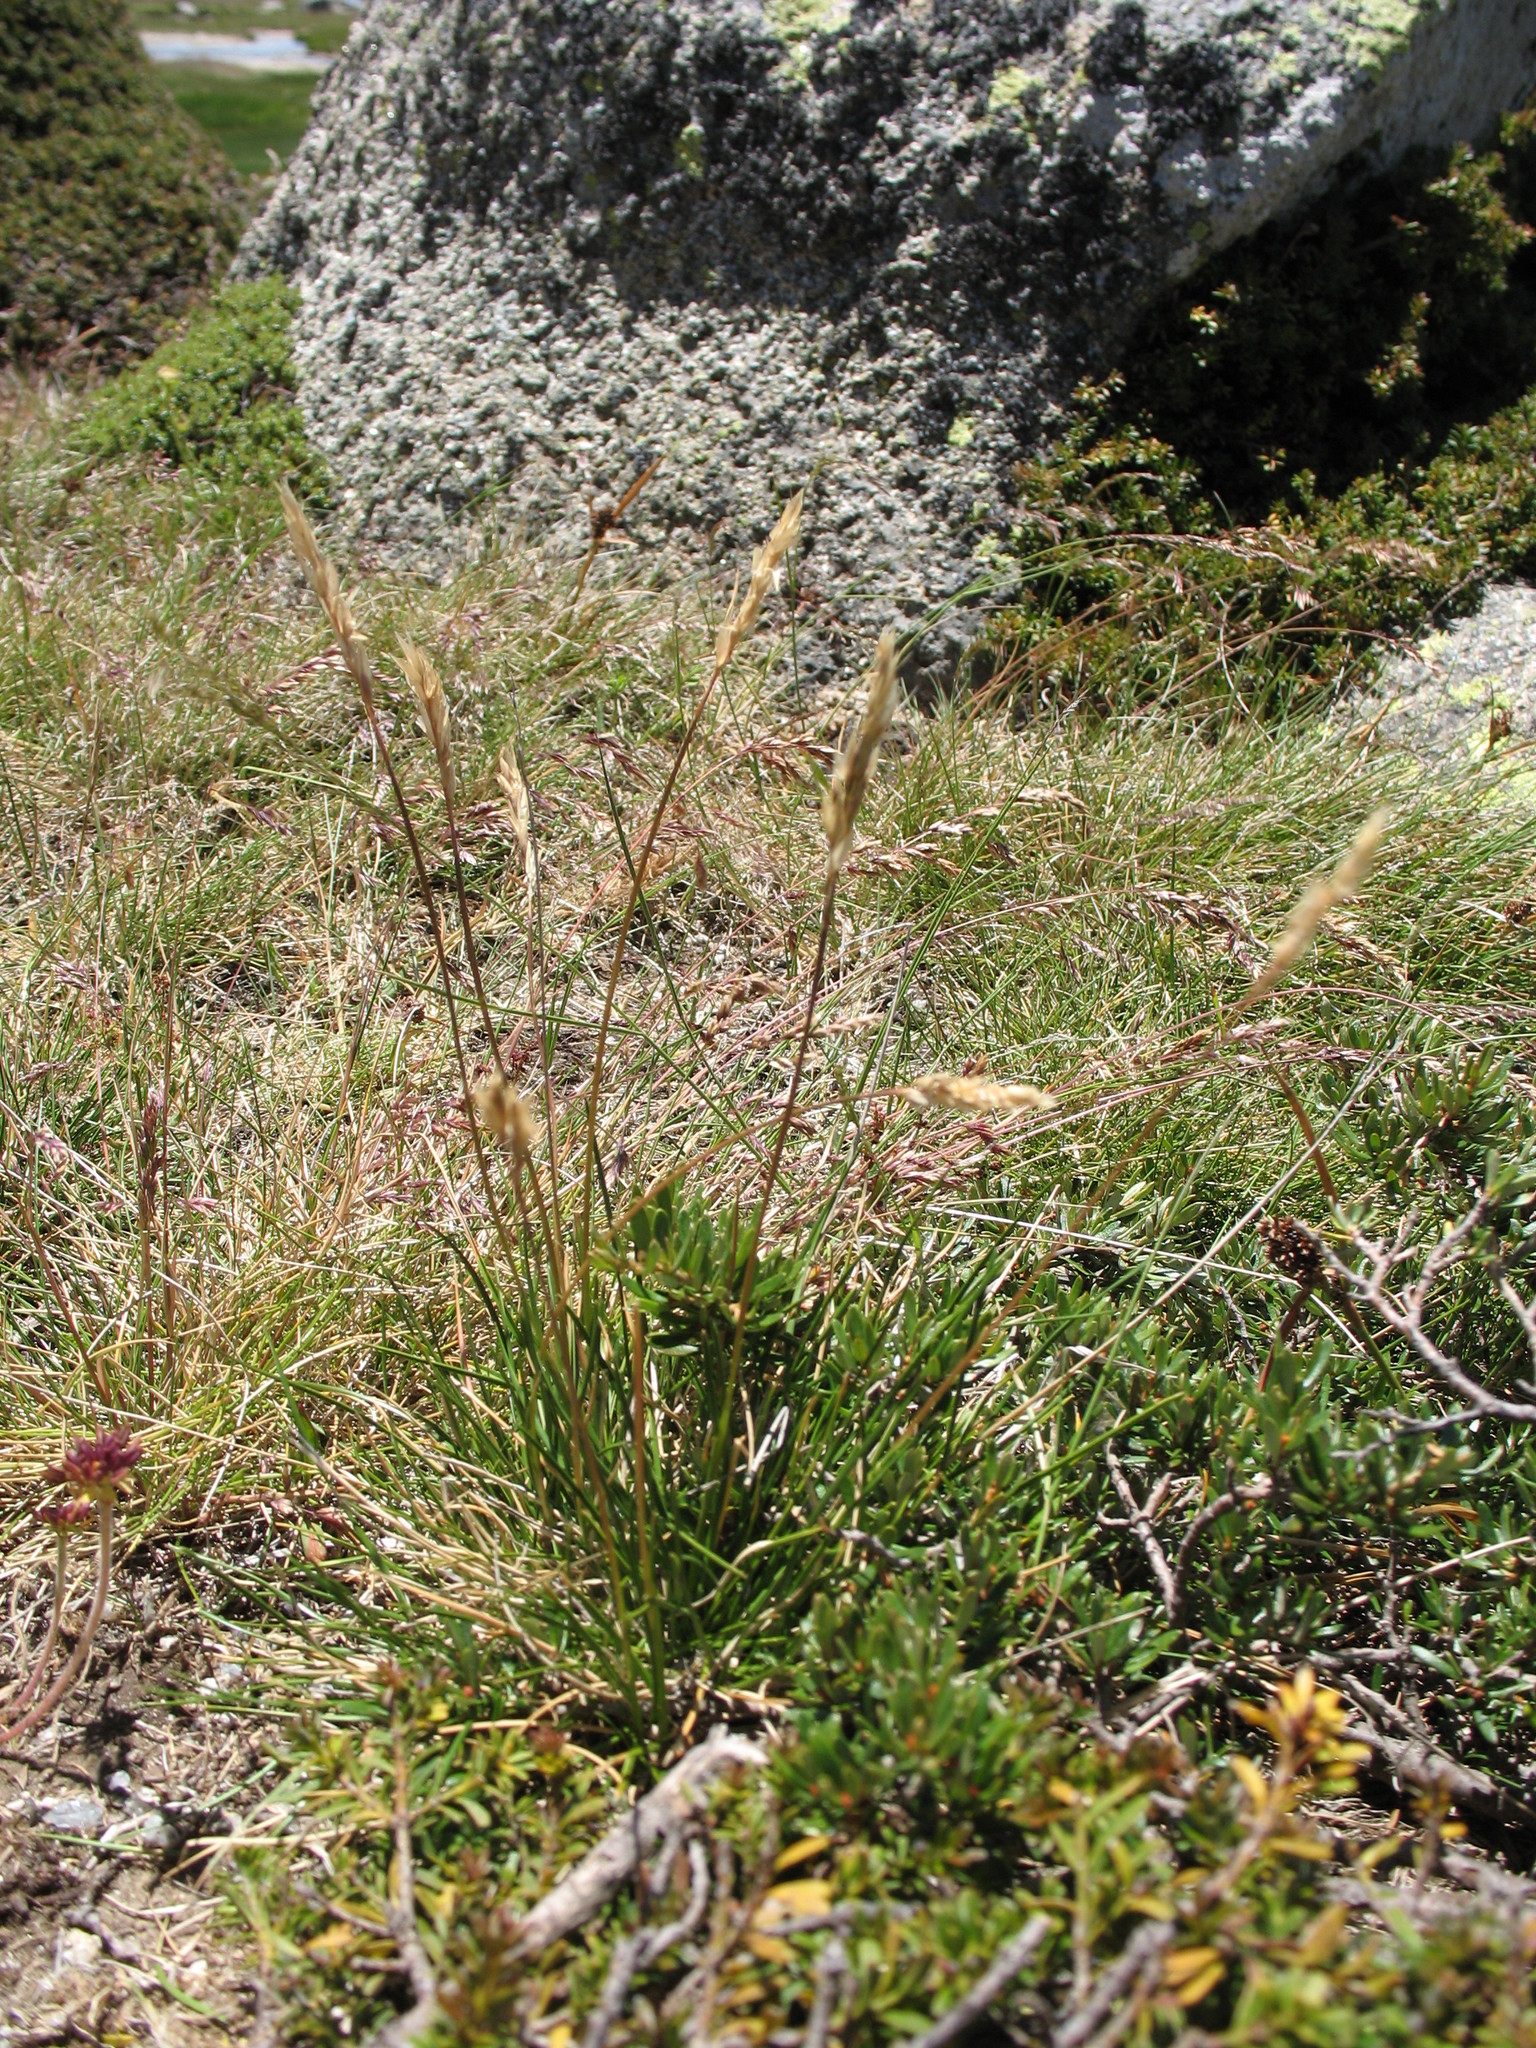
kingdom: Plantae
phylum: Tracheophyta
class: Liliopsida
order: Poales
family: Poaceae
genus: Rytidosperma
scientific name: Rytidosperma nudiflorum
